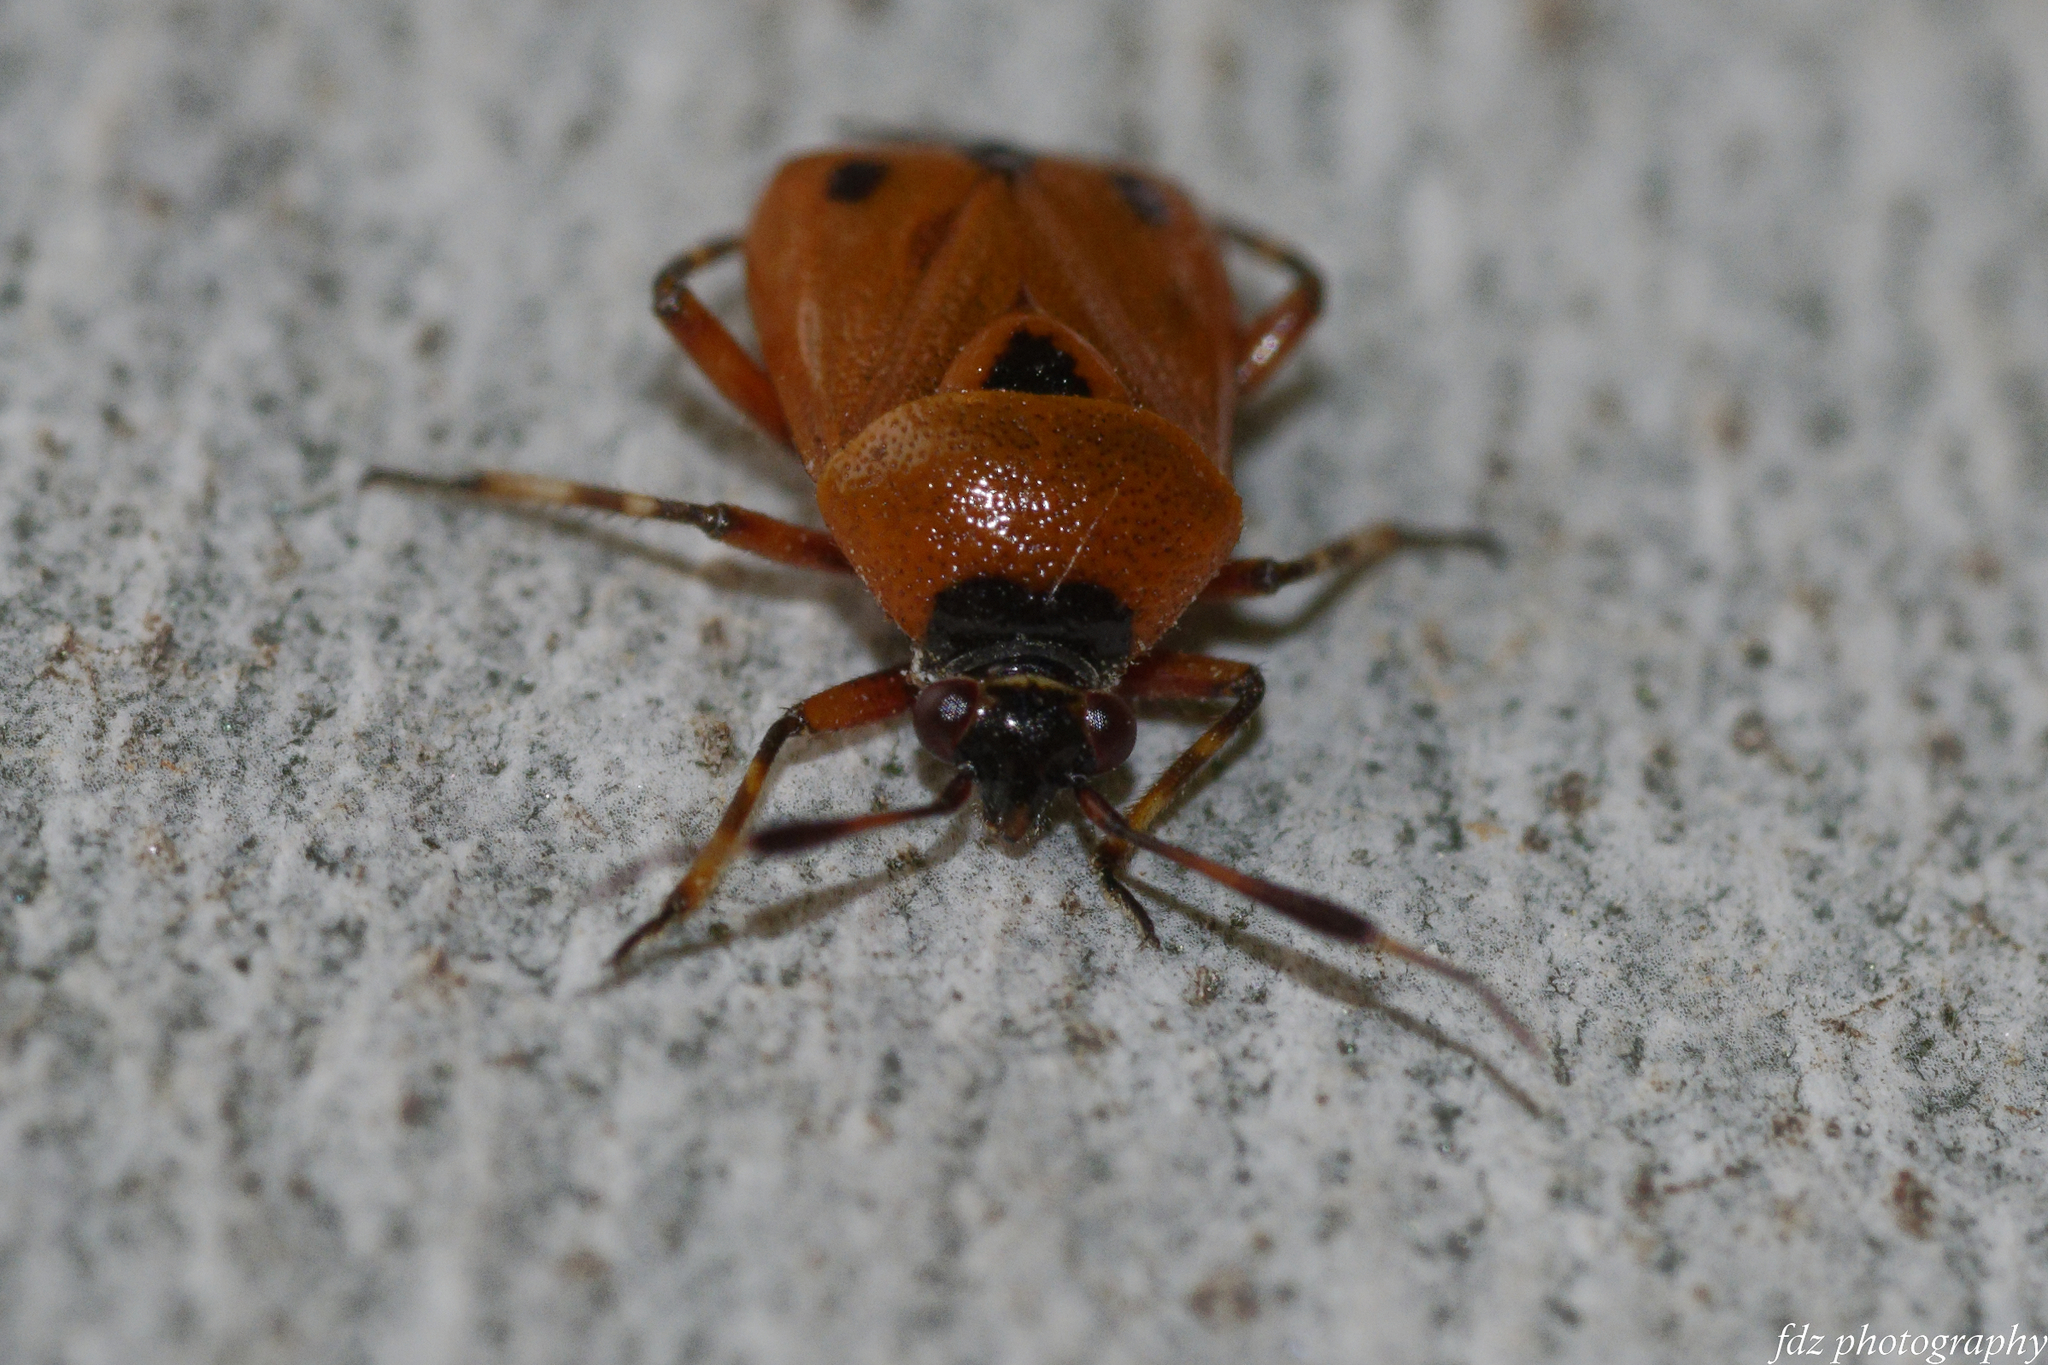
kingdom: Animalia
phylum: Arthropoda
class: Insecta
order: Hemiptera
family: Miridae
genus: Deraeocoris
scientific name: Deraeocoris punctum
